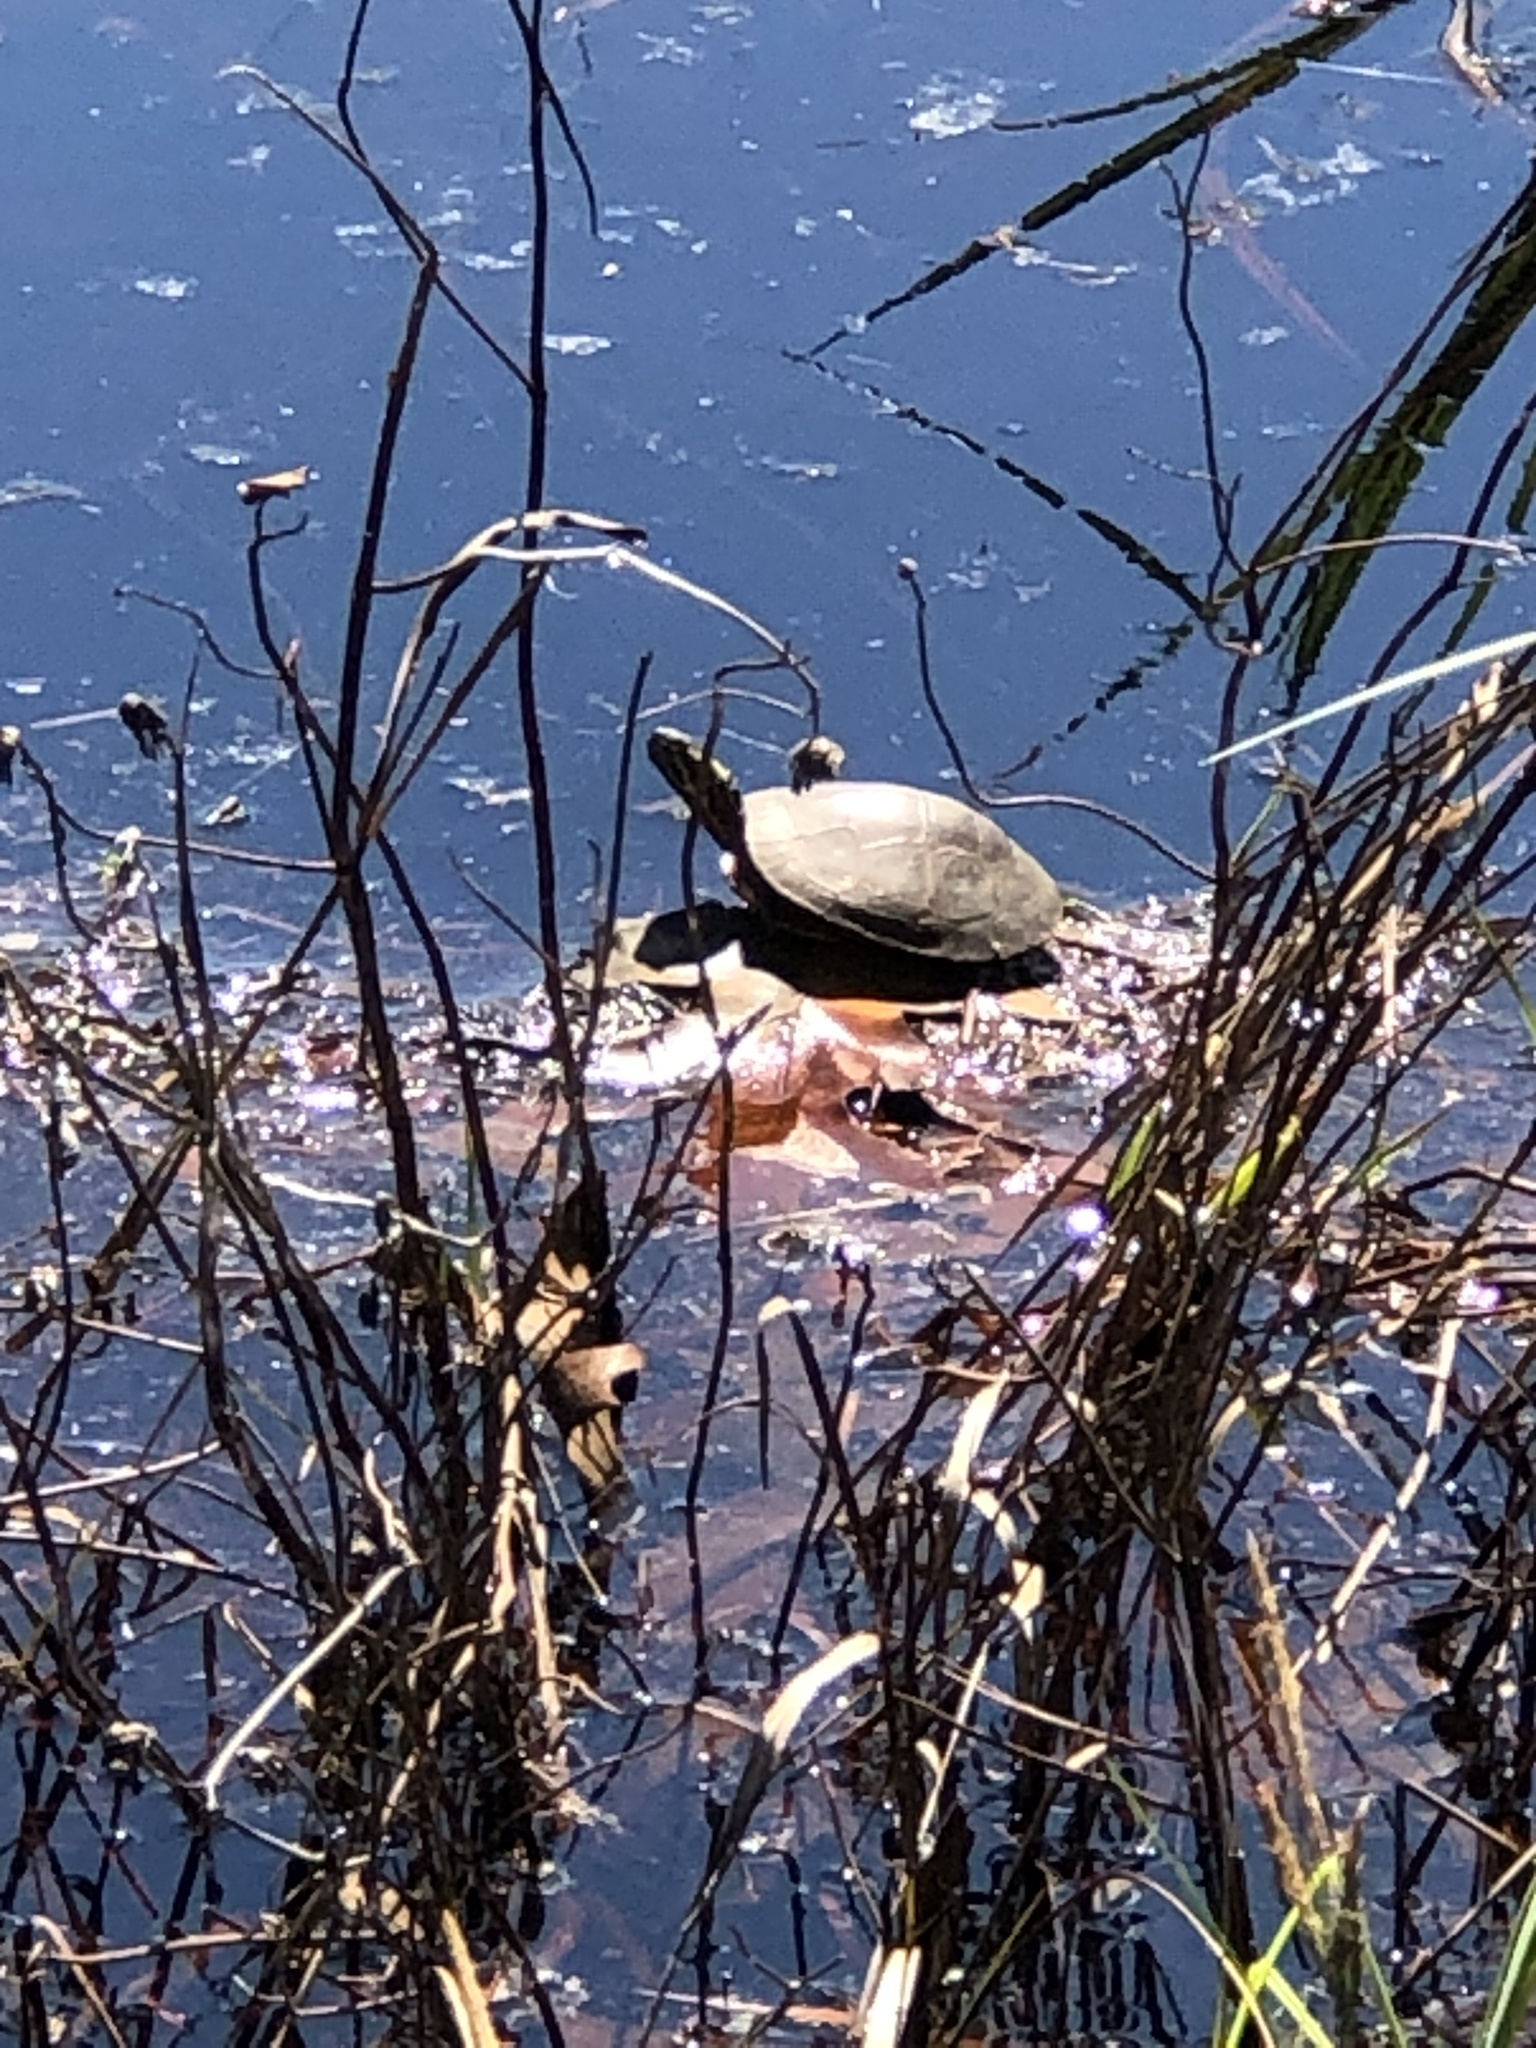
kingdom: Animalia
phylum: Chordata
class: Testudines
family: Emydidae
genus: Chrysemys
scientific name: Chrysemys picta
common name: Painted turtle
